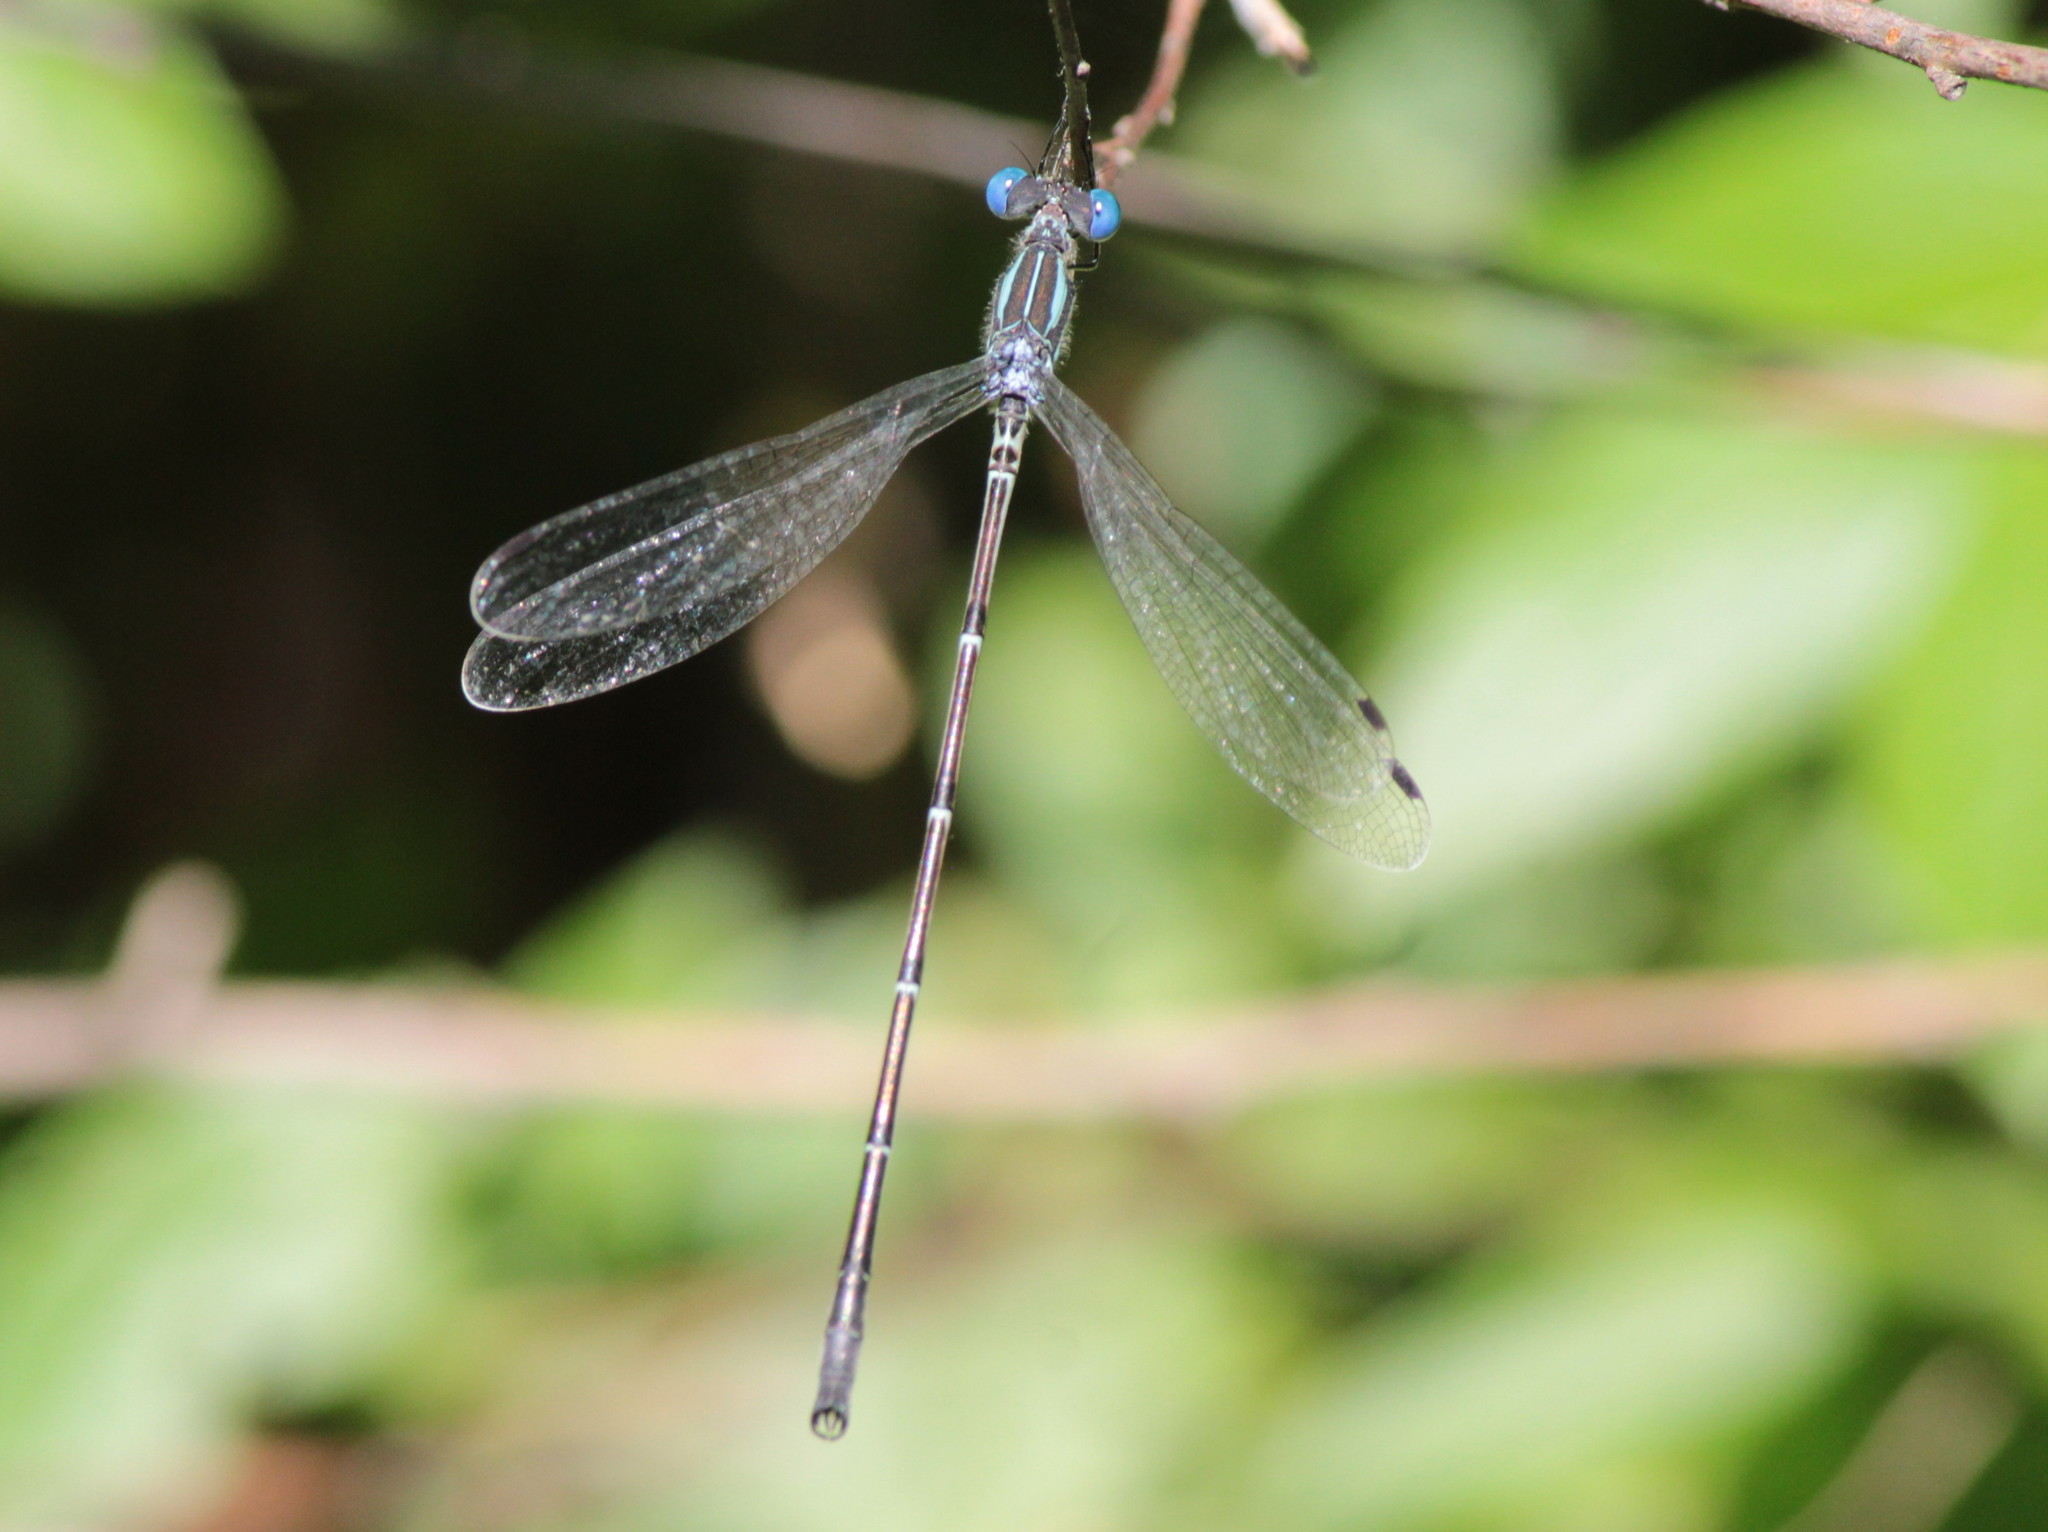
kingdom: Animalia
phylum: Arthropoda
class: Insecta
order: Odonata
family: Lestidae
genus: Lestes
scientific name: Lestes rectangularis
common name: Slender spreadwing
